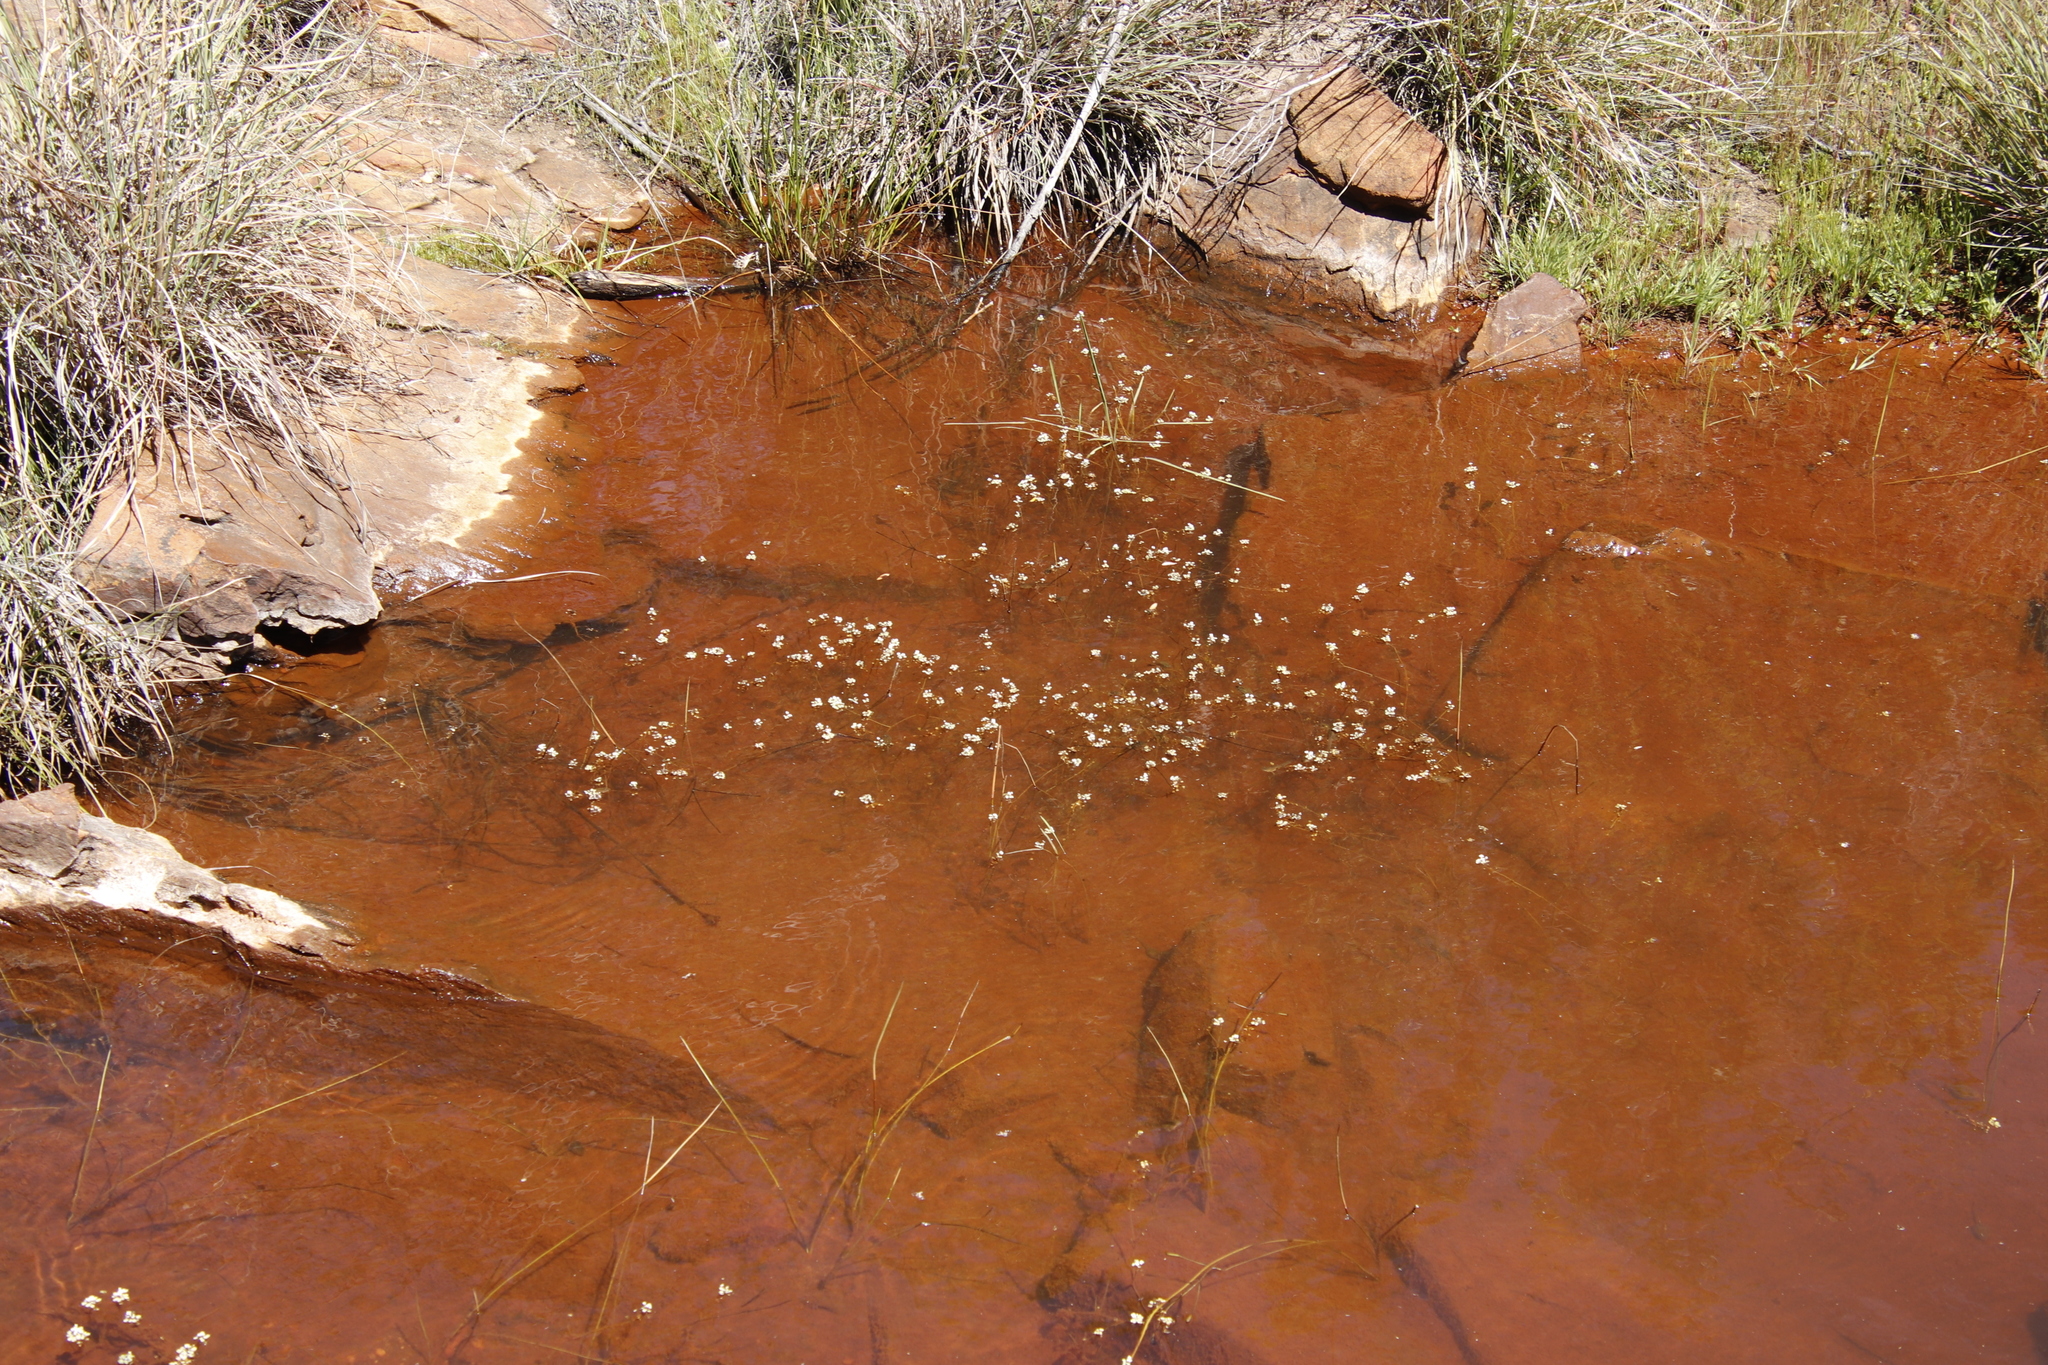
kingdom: Plantae
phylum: Tracheophyta
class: Magnoliopsida
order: Saxifragales
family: Crassulaceae
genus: Crassula
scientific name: Crassula natans
